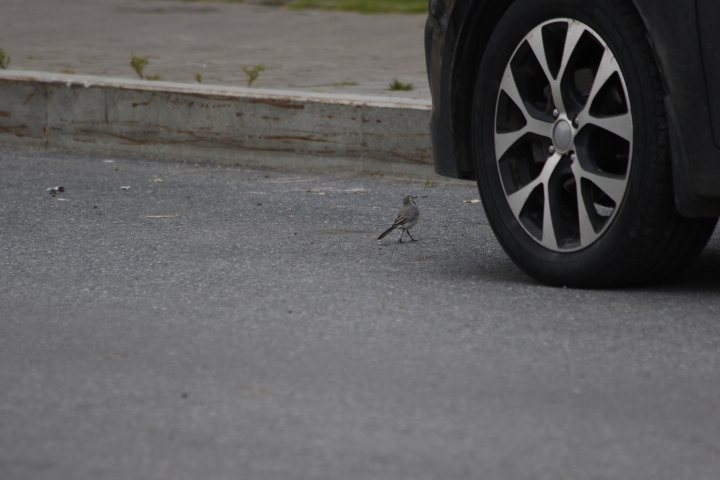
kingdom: Animalia
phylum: Chordata
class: Aves
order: Passeriformes
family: Motacillidae
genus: Motacilla
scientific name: Motacilla alba
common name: White wagtail
